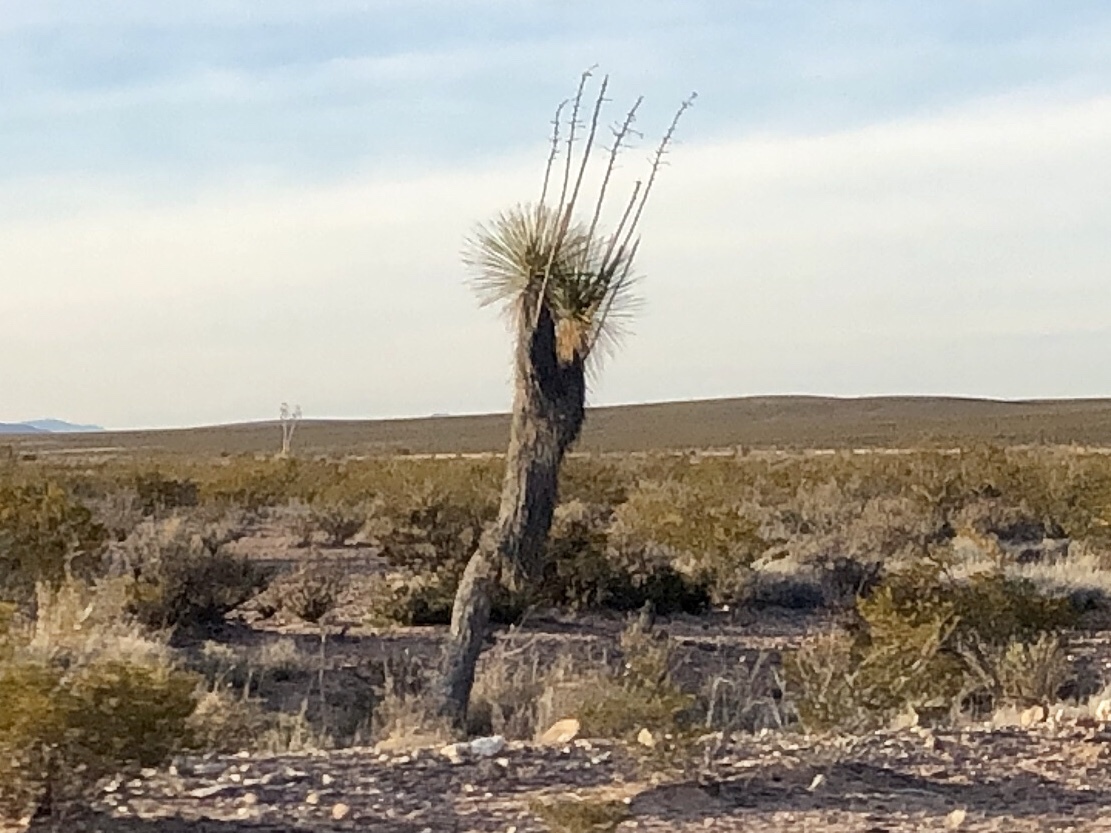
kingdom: Plantae
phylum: Tracheophyta
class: Liliopsida
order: Asparagales
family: Asparagaceae
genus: Yucca
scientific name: Yucca elata
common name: Palmella
